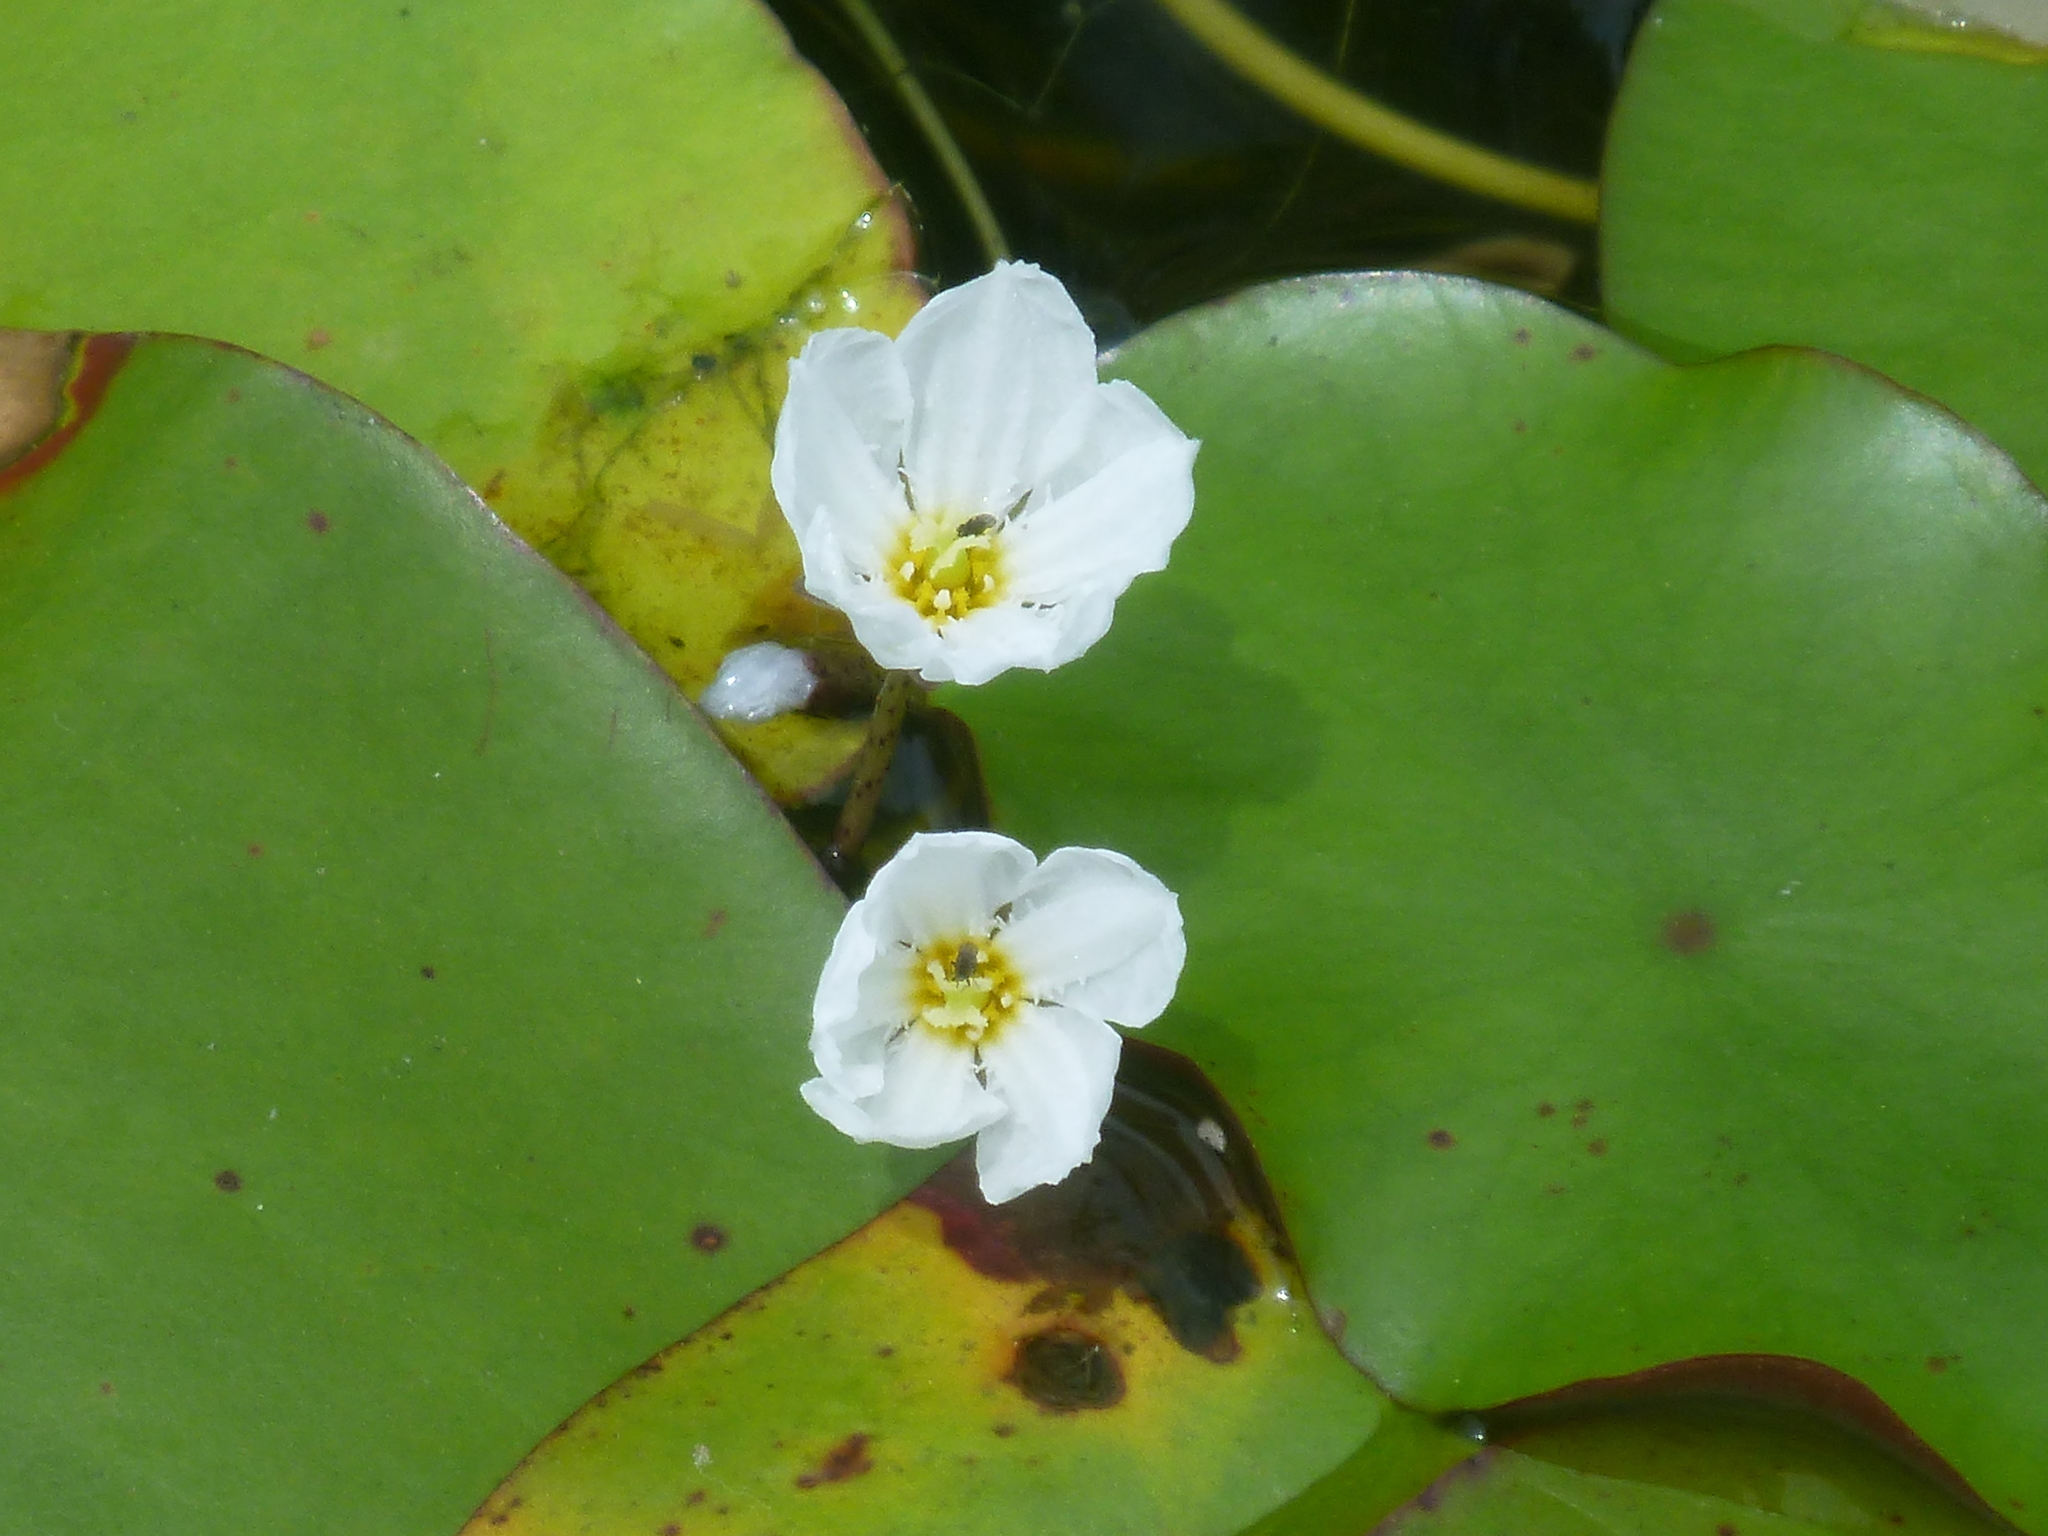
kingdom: Plantae
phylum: Tracheophyta
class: Magnoliopsida
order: Asterales
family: Menyanthaceae
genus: Nymphoides
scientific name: Nymphoides aquatica
